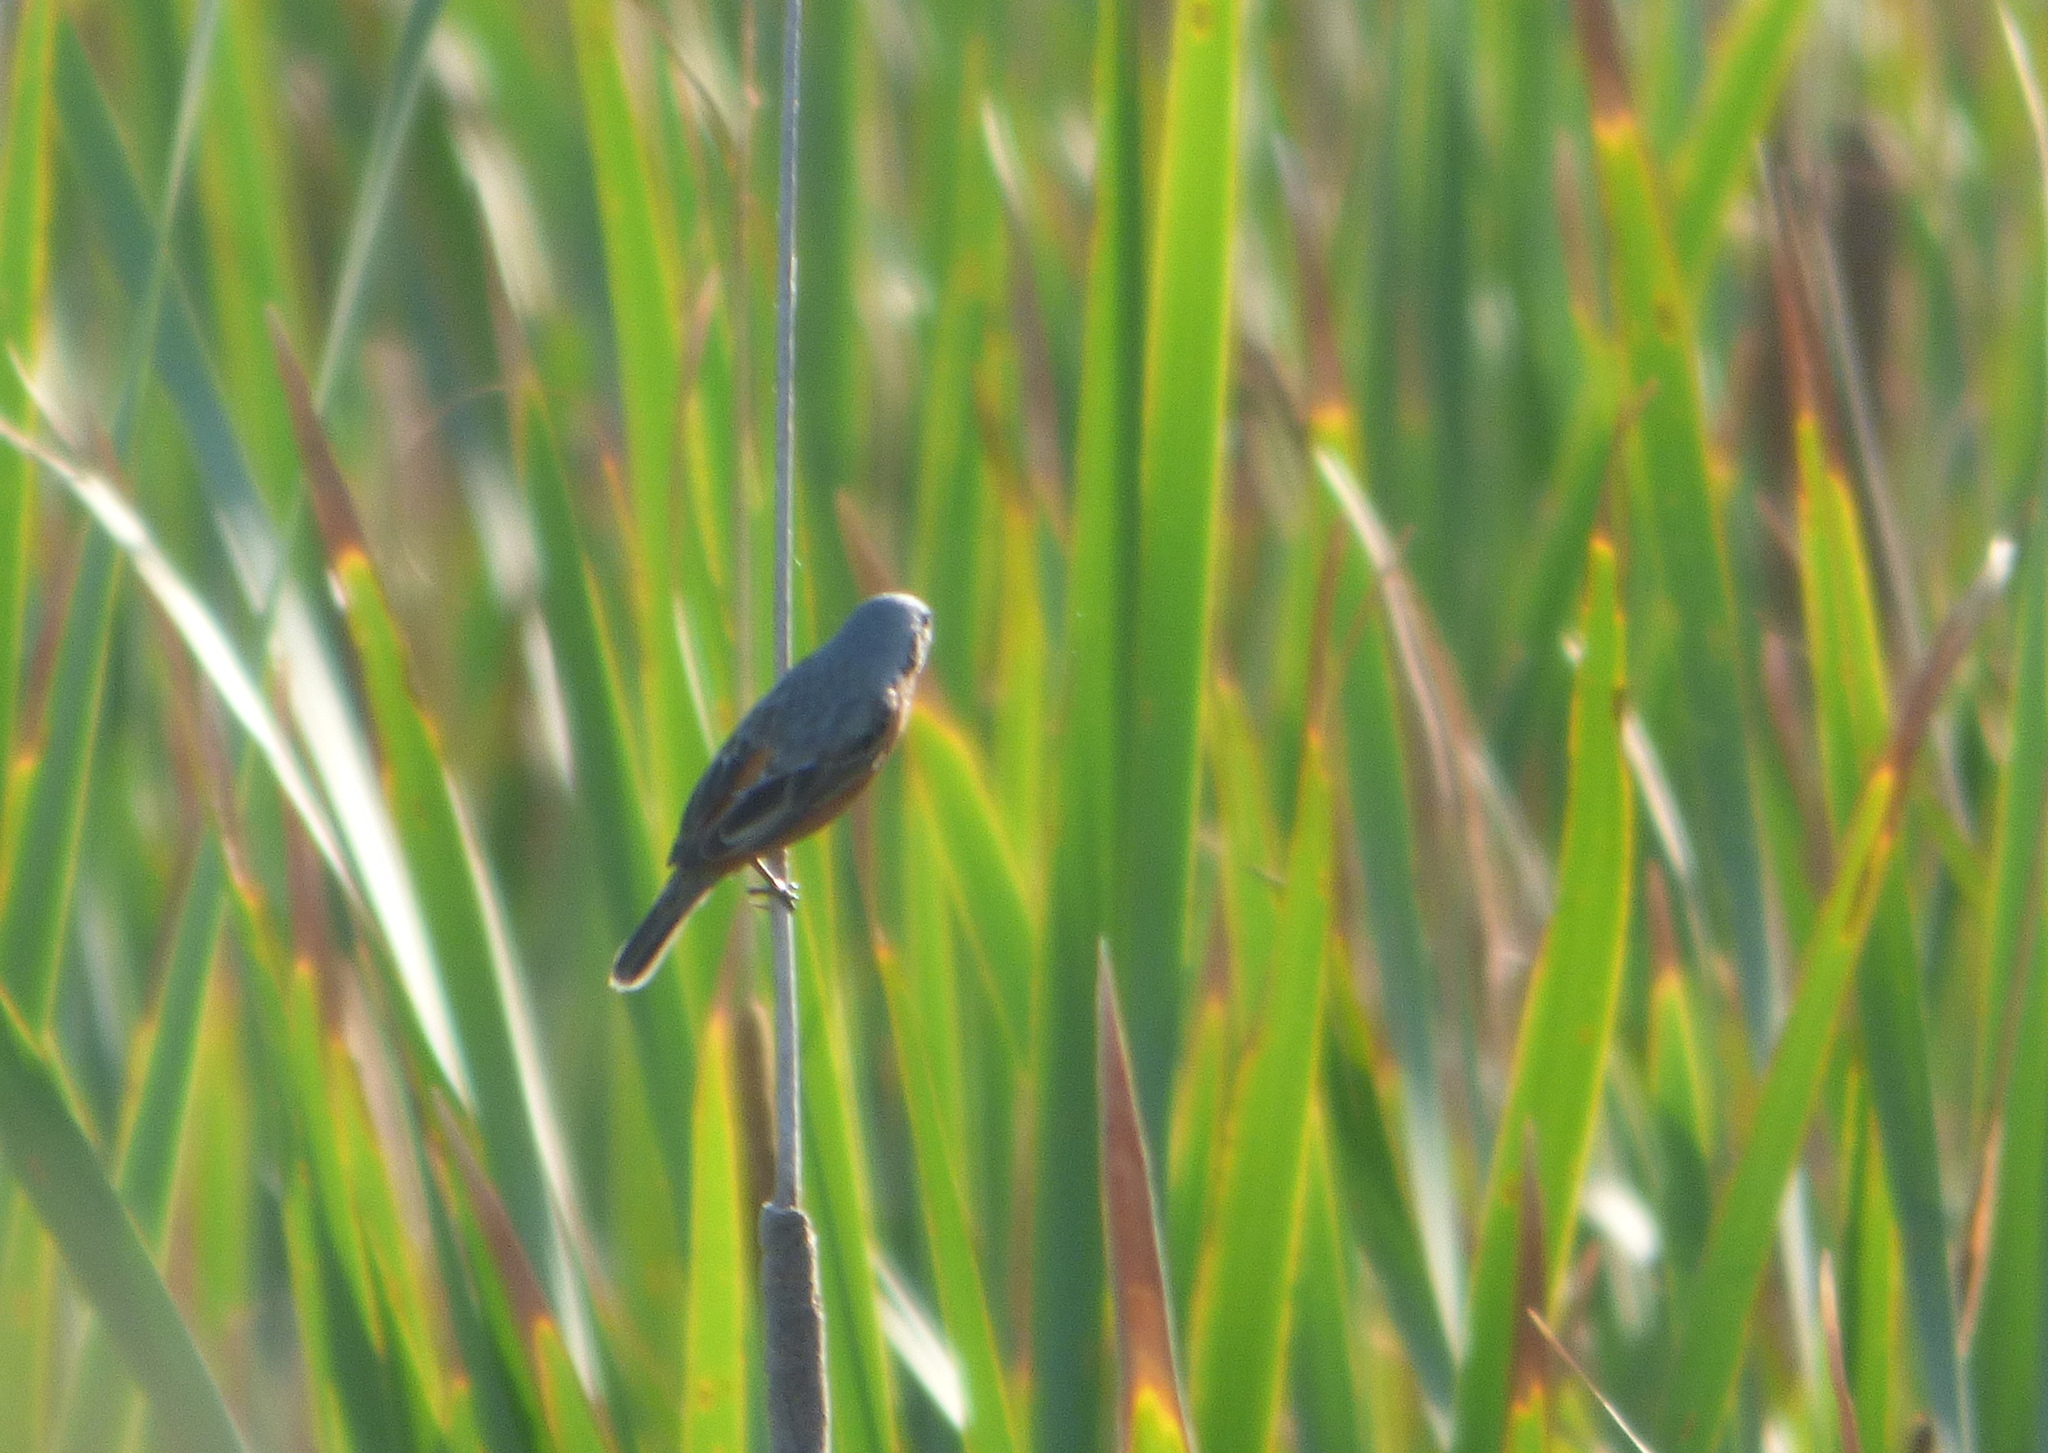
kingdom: Animalia
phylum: Chordata
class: Aves
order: Passeriformes
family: Thraupidae
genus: Sporophila
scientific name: Sporophila ruficollis
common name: Dark-throated seedeater
